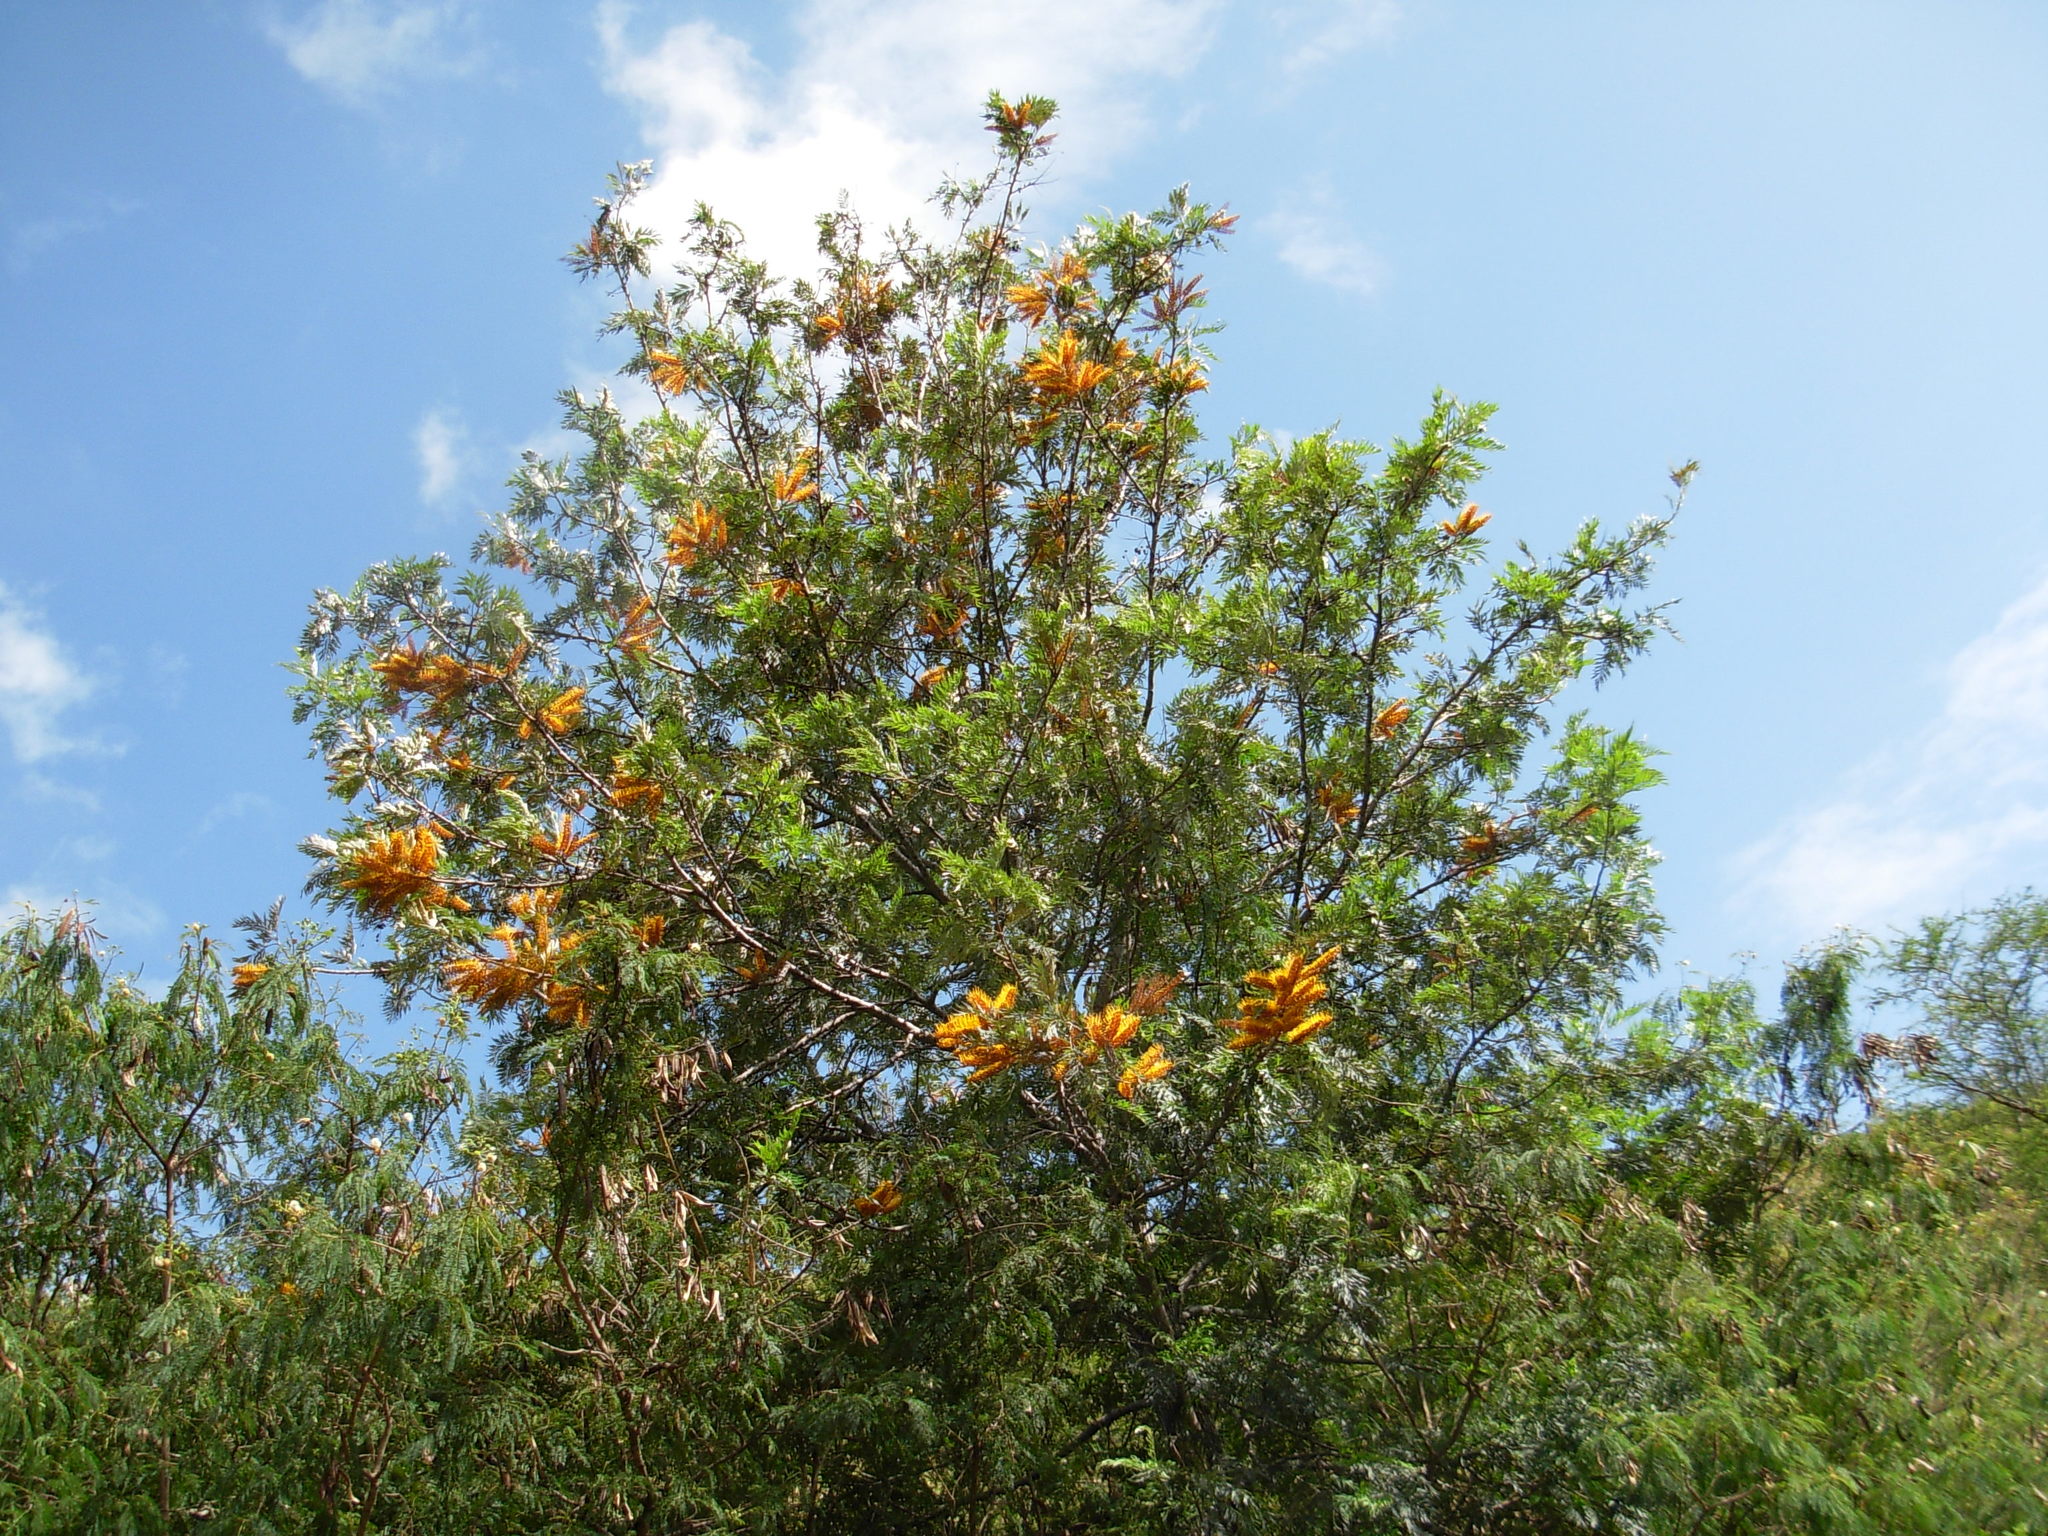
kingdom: Plantae
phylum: Tracheophyta
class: Magnoliopsida
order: Proteales
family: Proteaceae
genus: Grevillea
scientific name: Grevillea robusta
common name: Silkoak
